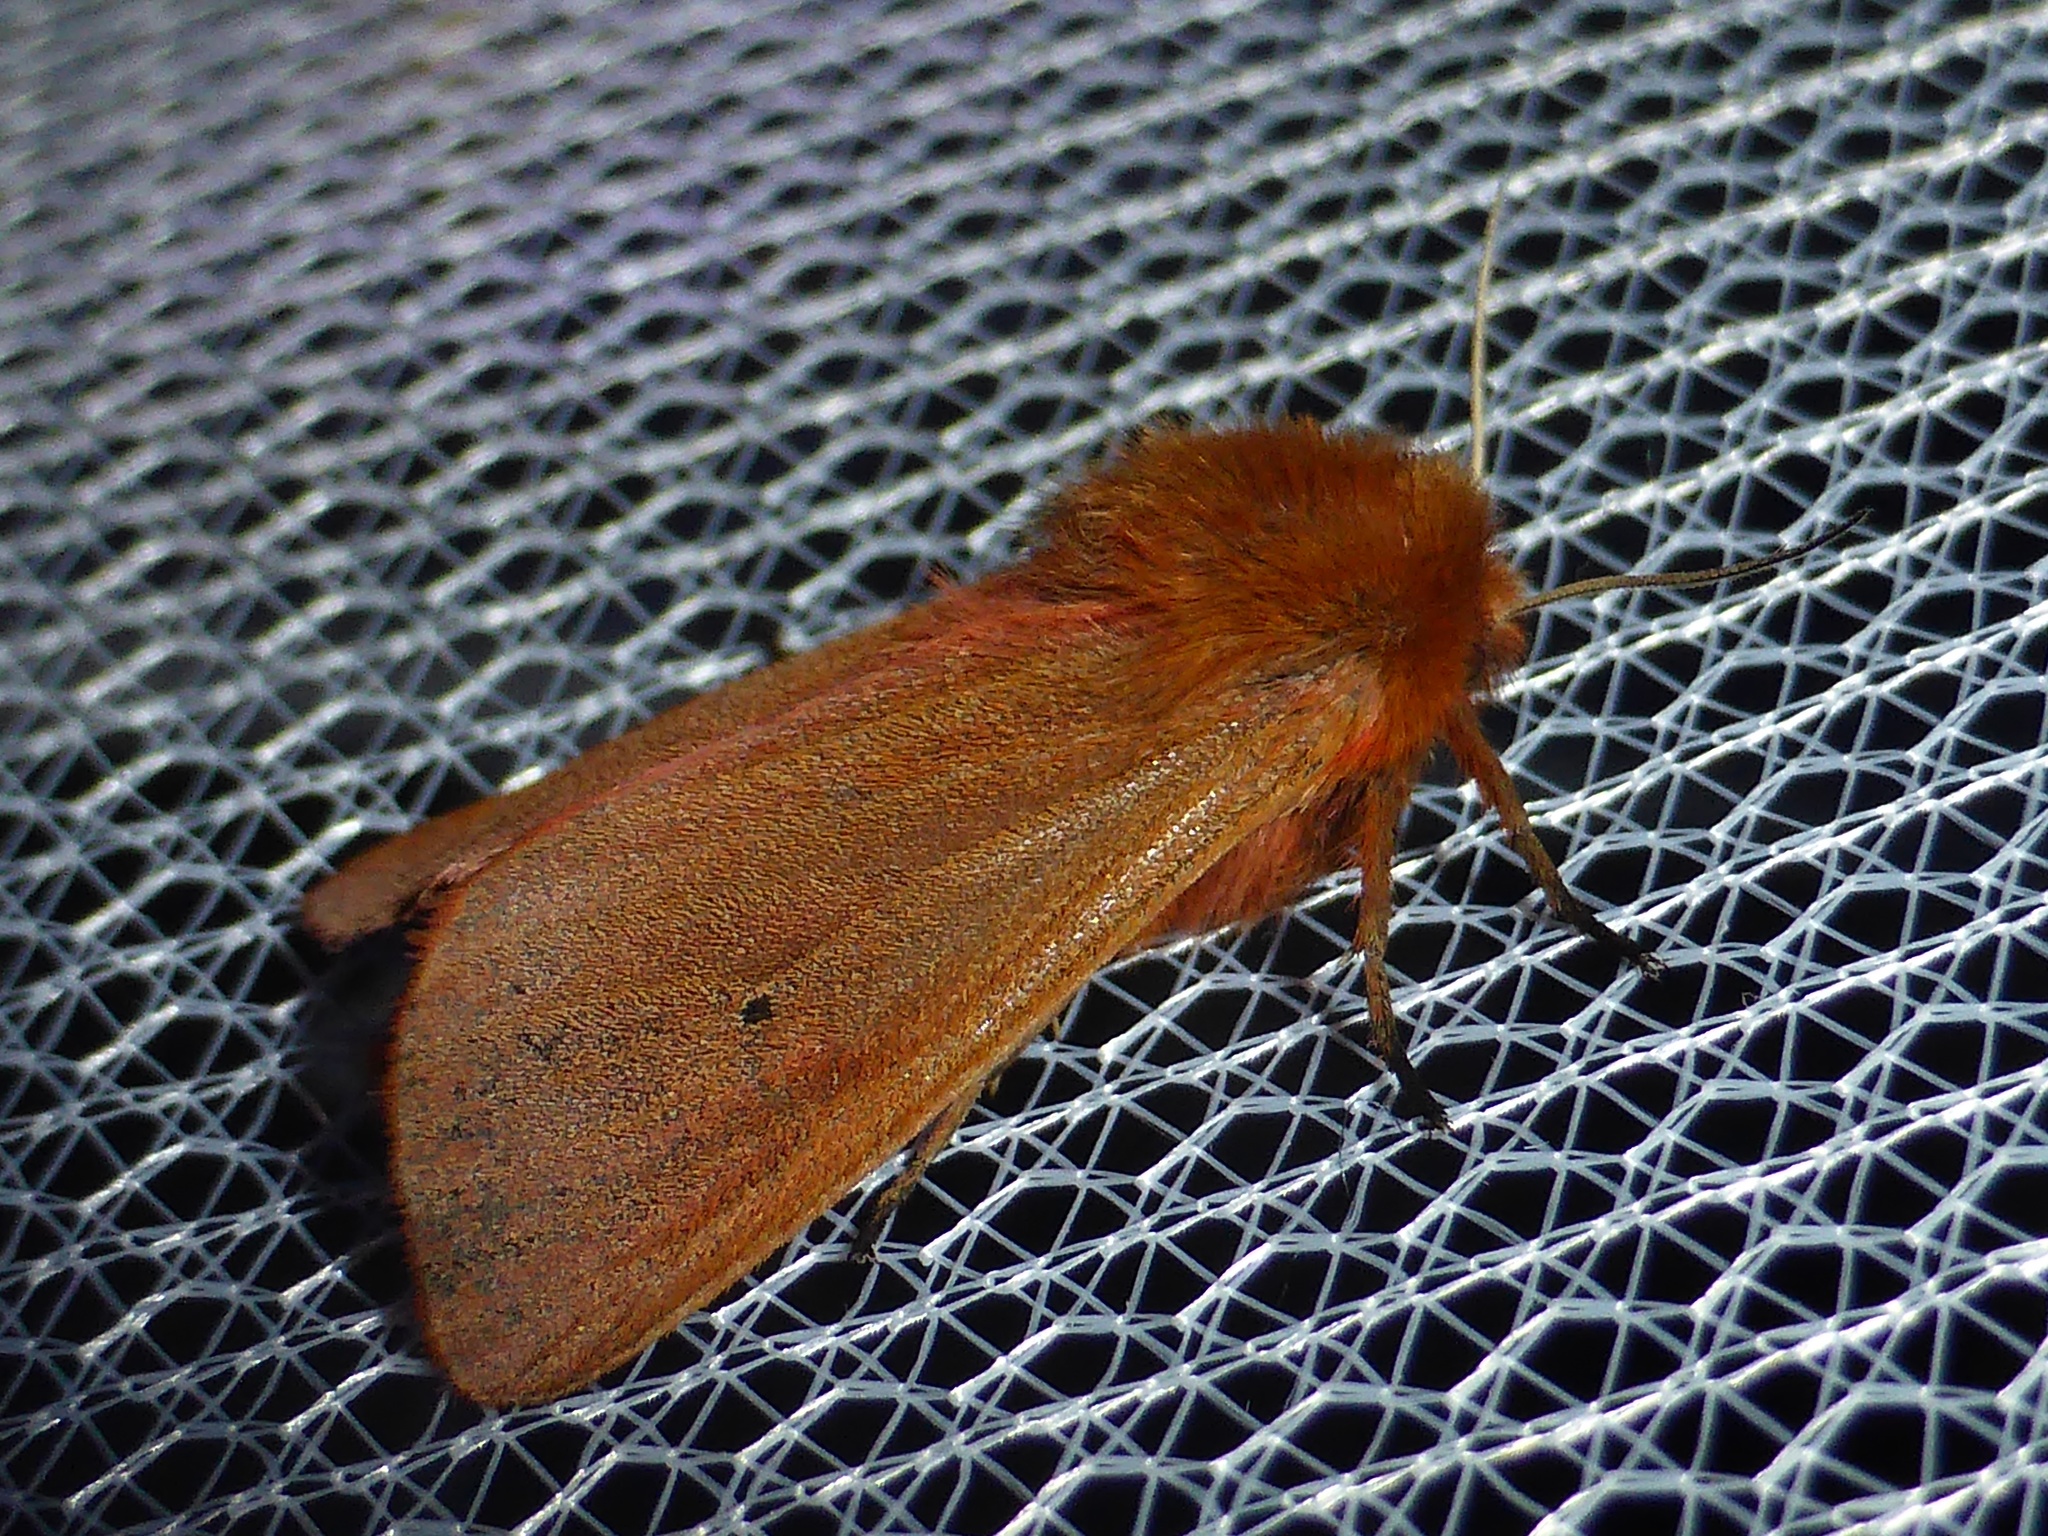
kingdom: Animalia
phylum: Arthropoda
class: Insecta
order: Lepidoptera
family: Erebidae
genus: Phragmatobia
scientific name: Phragmatobia fuliginosa
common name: Ruby tiger
